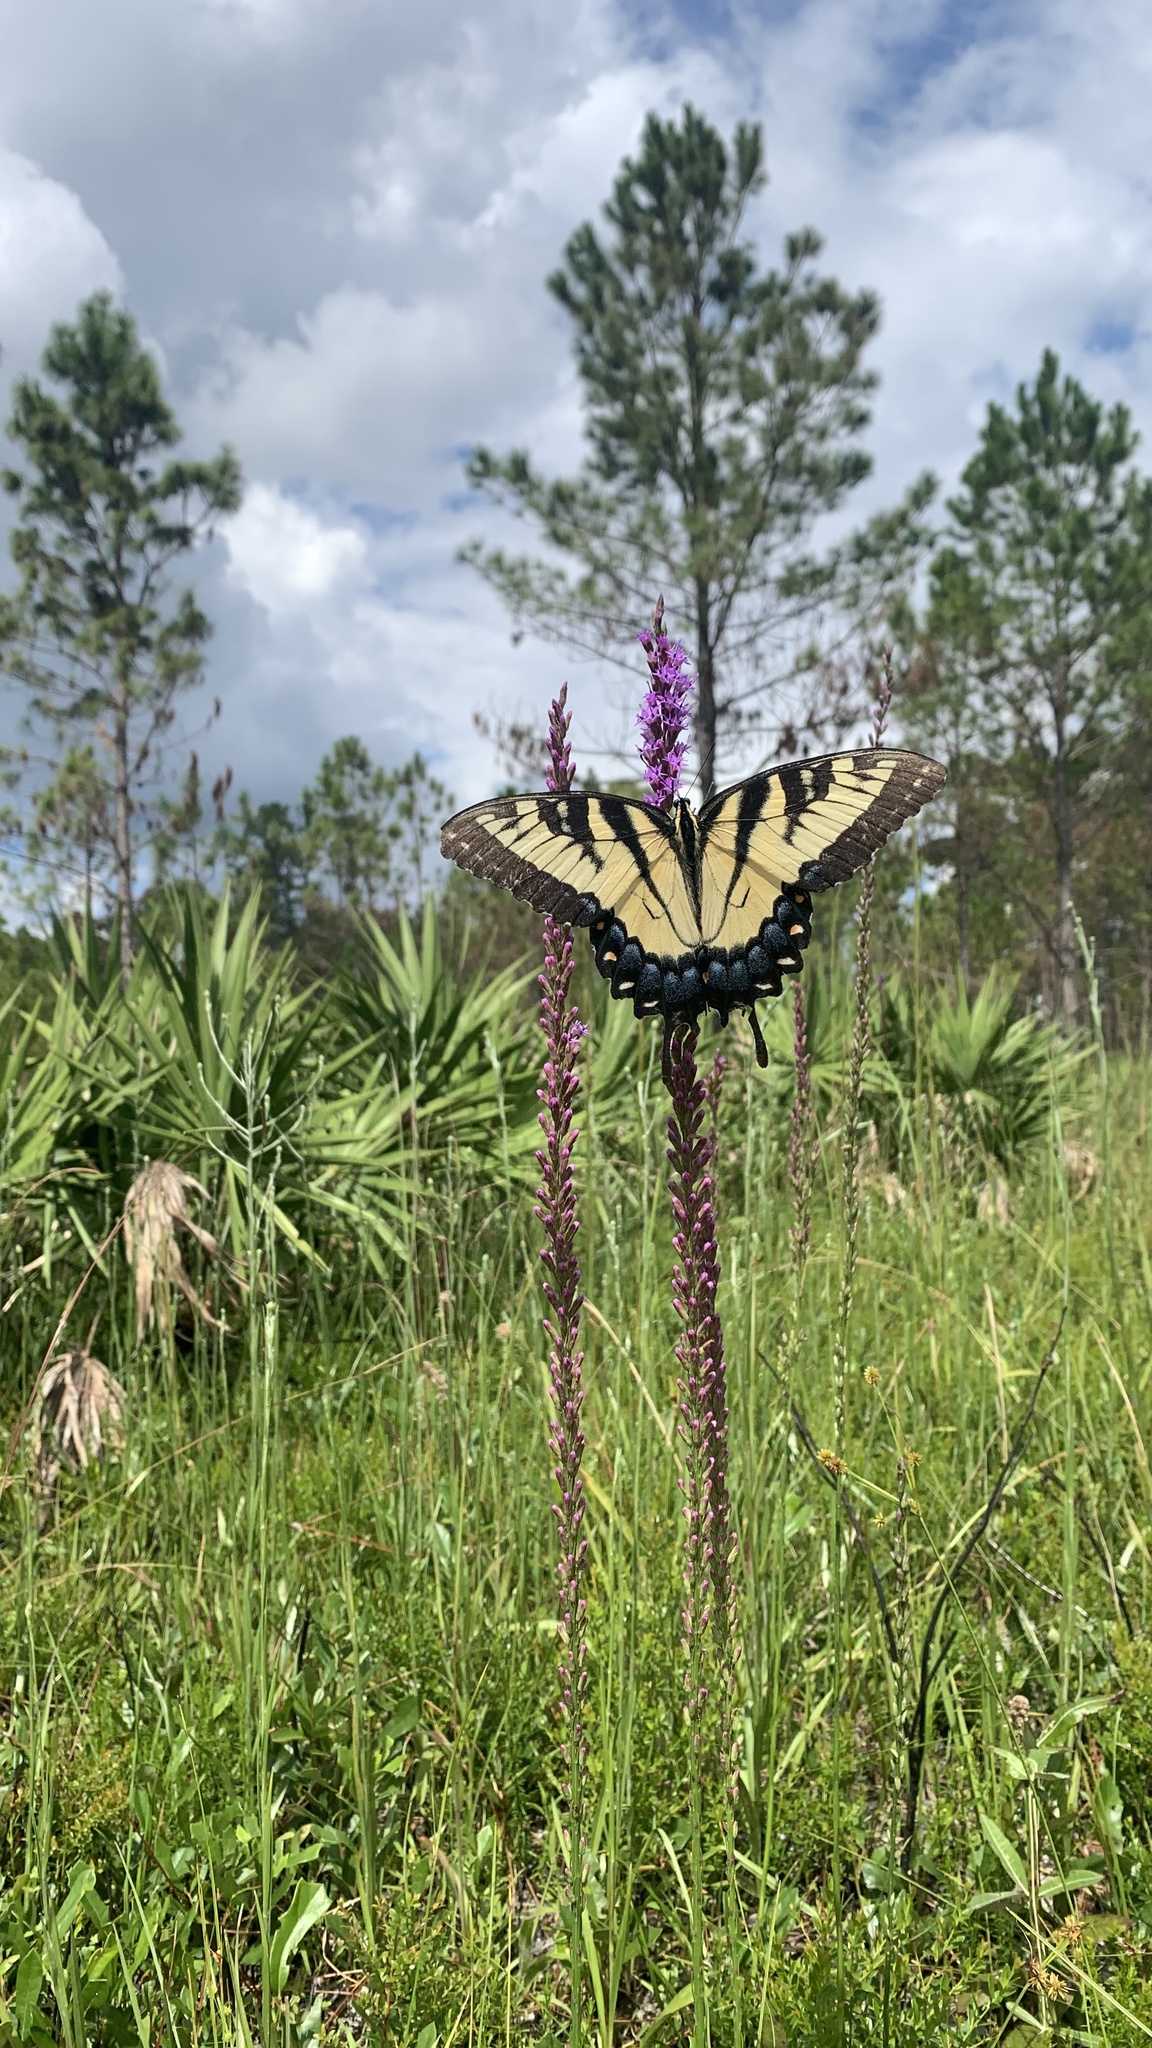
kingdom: Animalia
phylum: Arthropoda
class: Insecta
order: Lepidoptera
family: Papilionidae
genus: Papilio
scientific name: Papilio glaucus
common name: Tiger swallowtail
